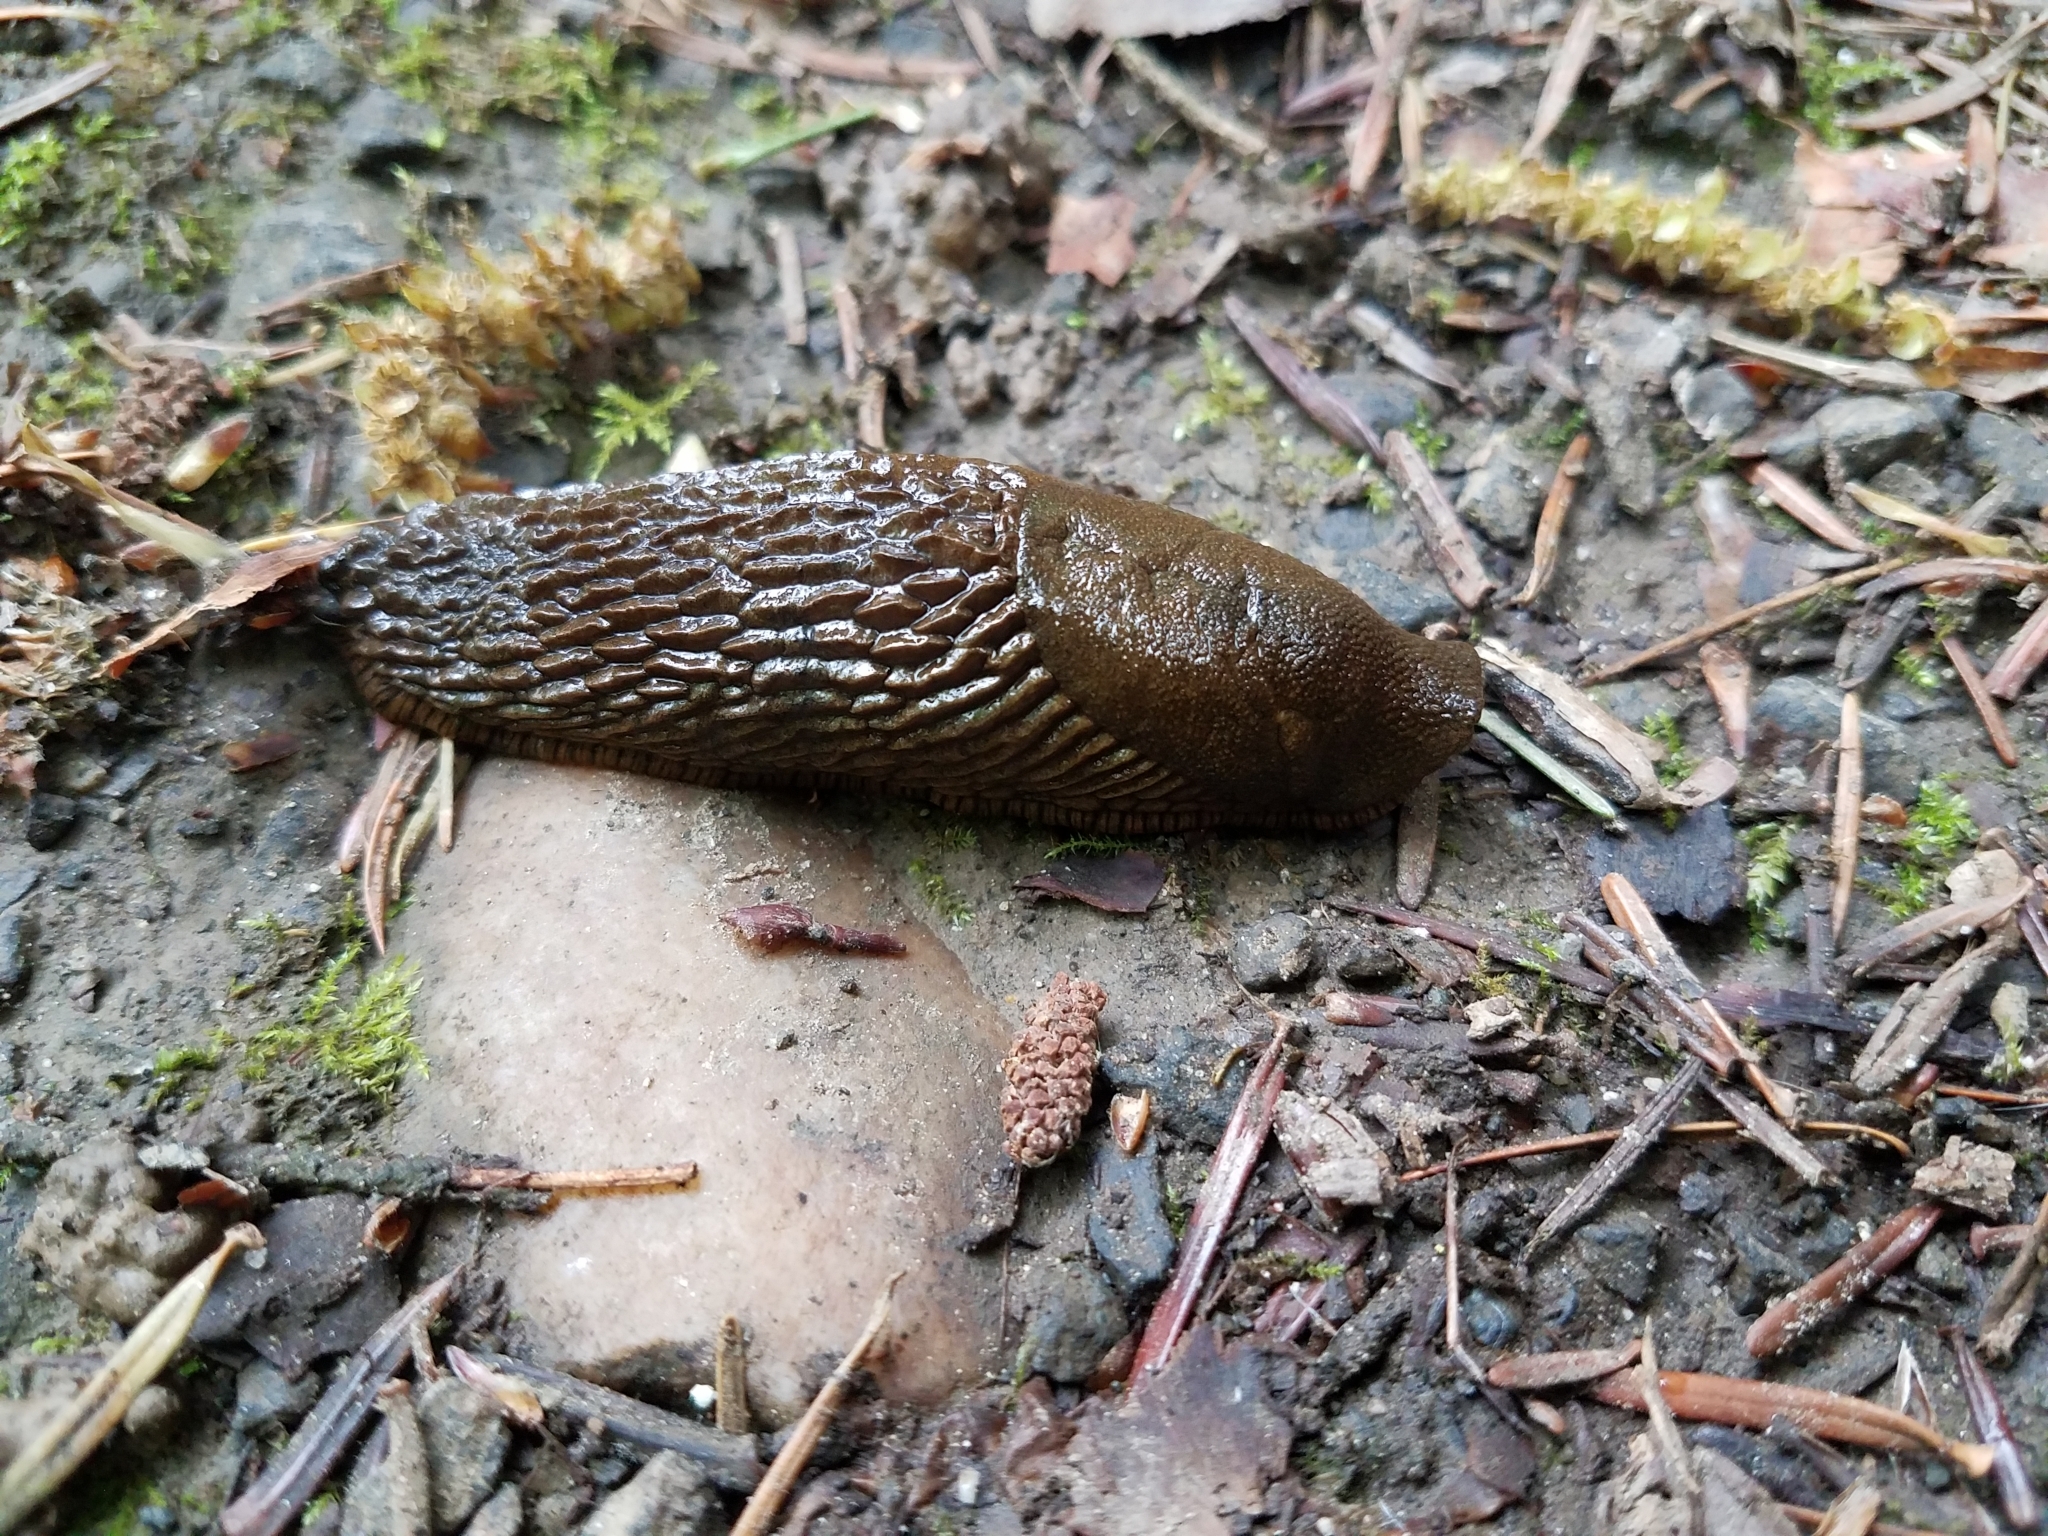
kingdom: Animalia
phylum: Mollusca
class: Gastropoda
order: Stylommatophora
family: Arionidae
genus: Arion
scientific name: Arion
